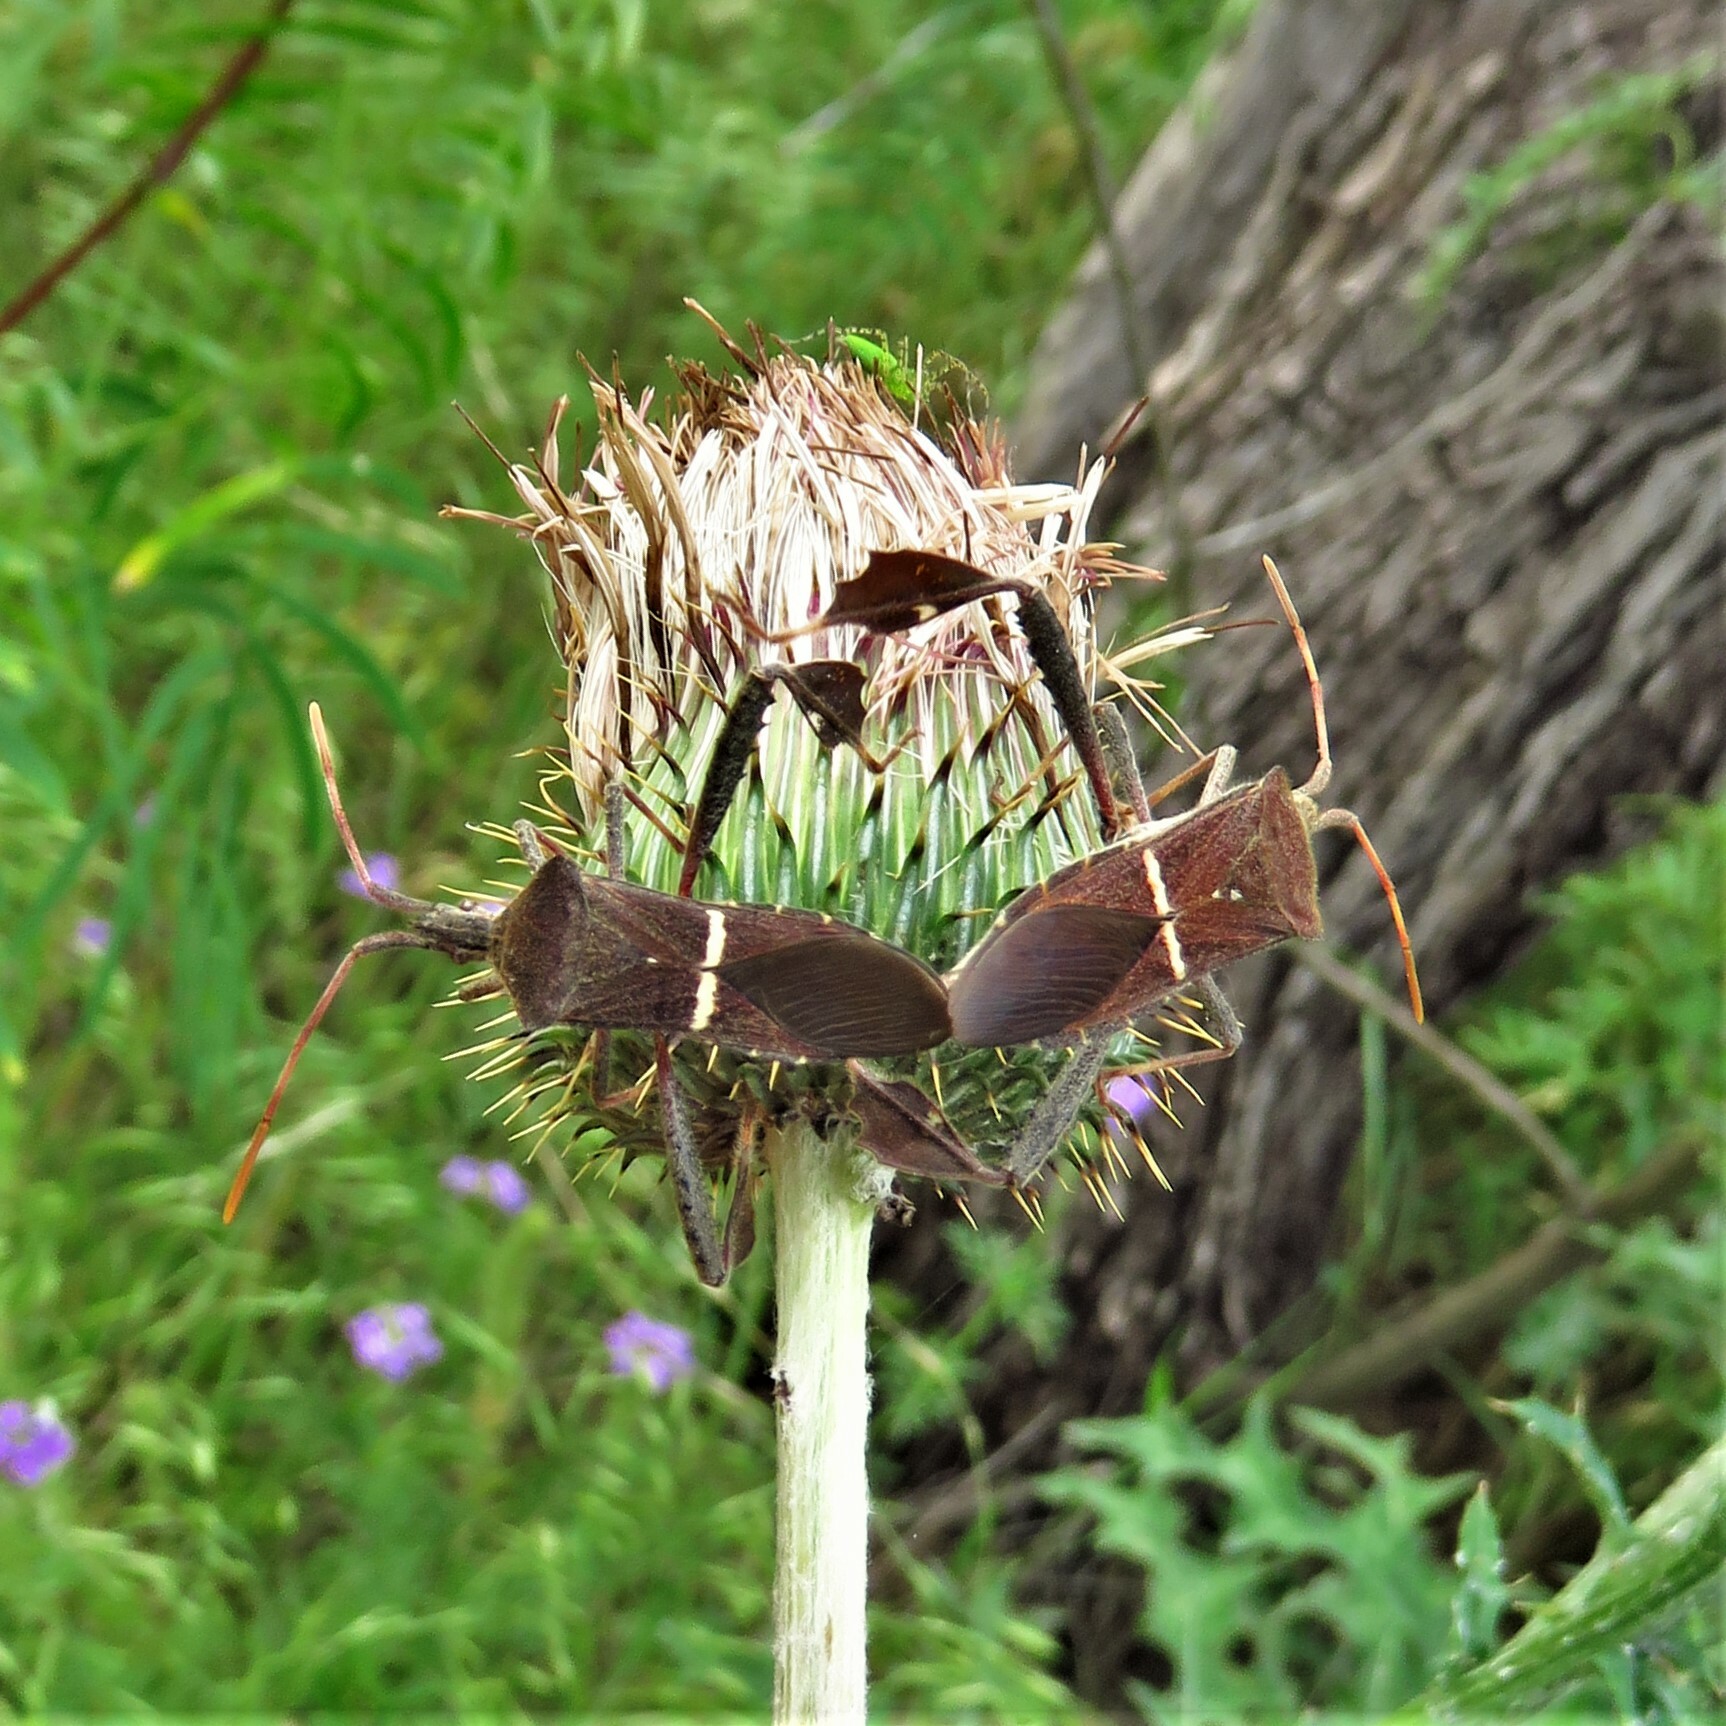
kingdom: Animalia
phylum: Arthropoda
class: Insecta
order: Hemiptera
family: Coreidae
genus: Leptoglossus
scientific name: Leptoglossus phyllopus
